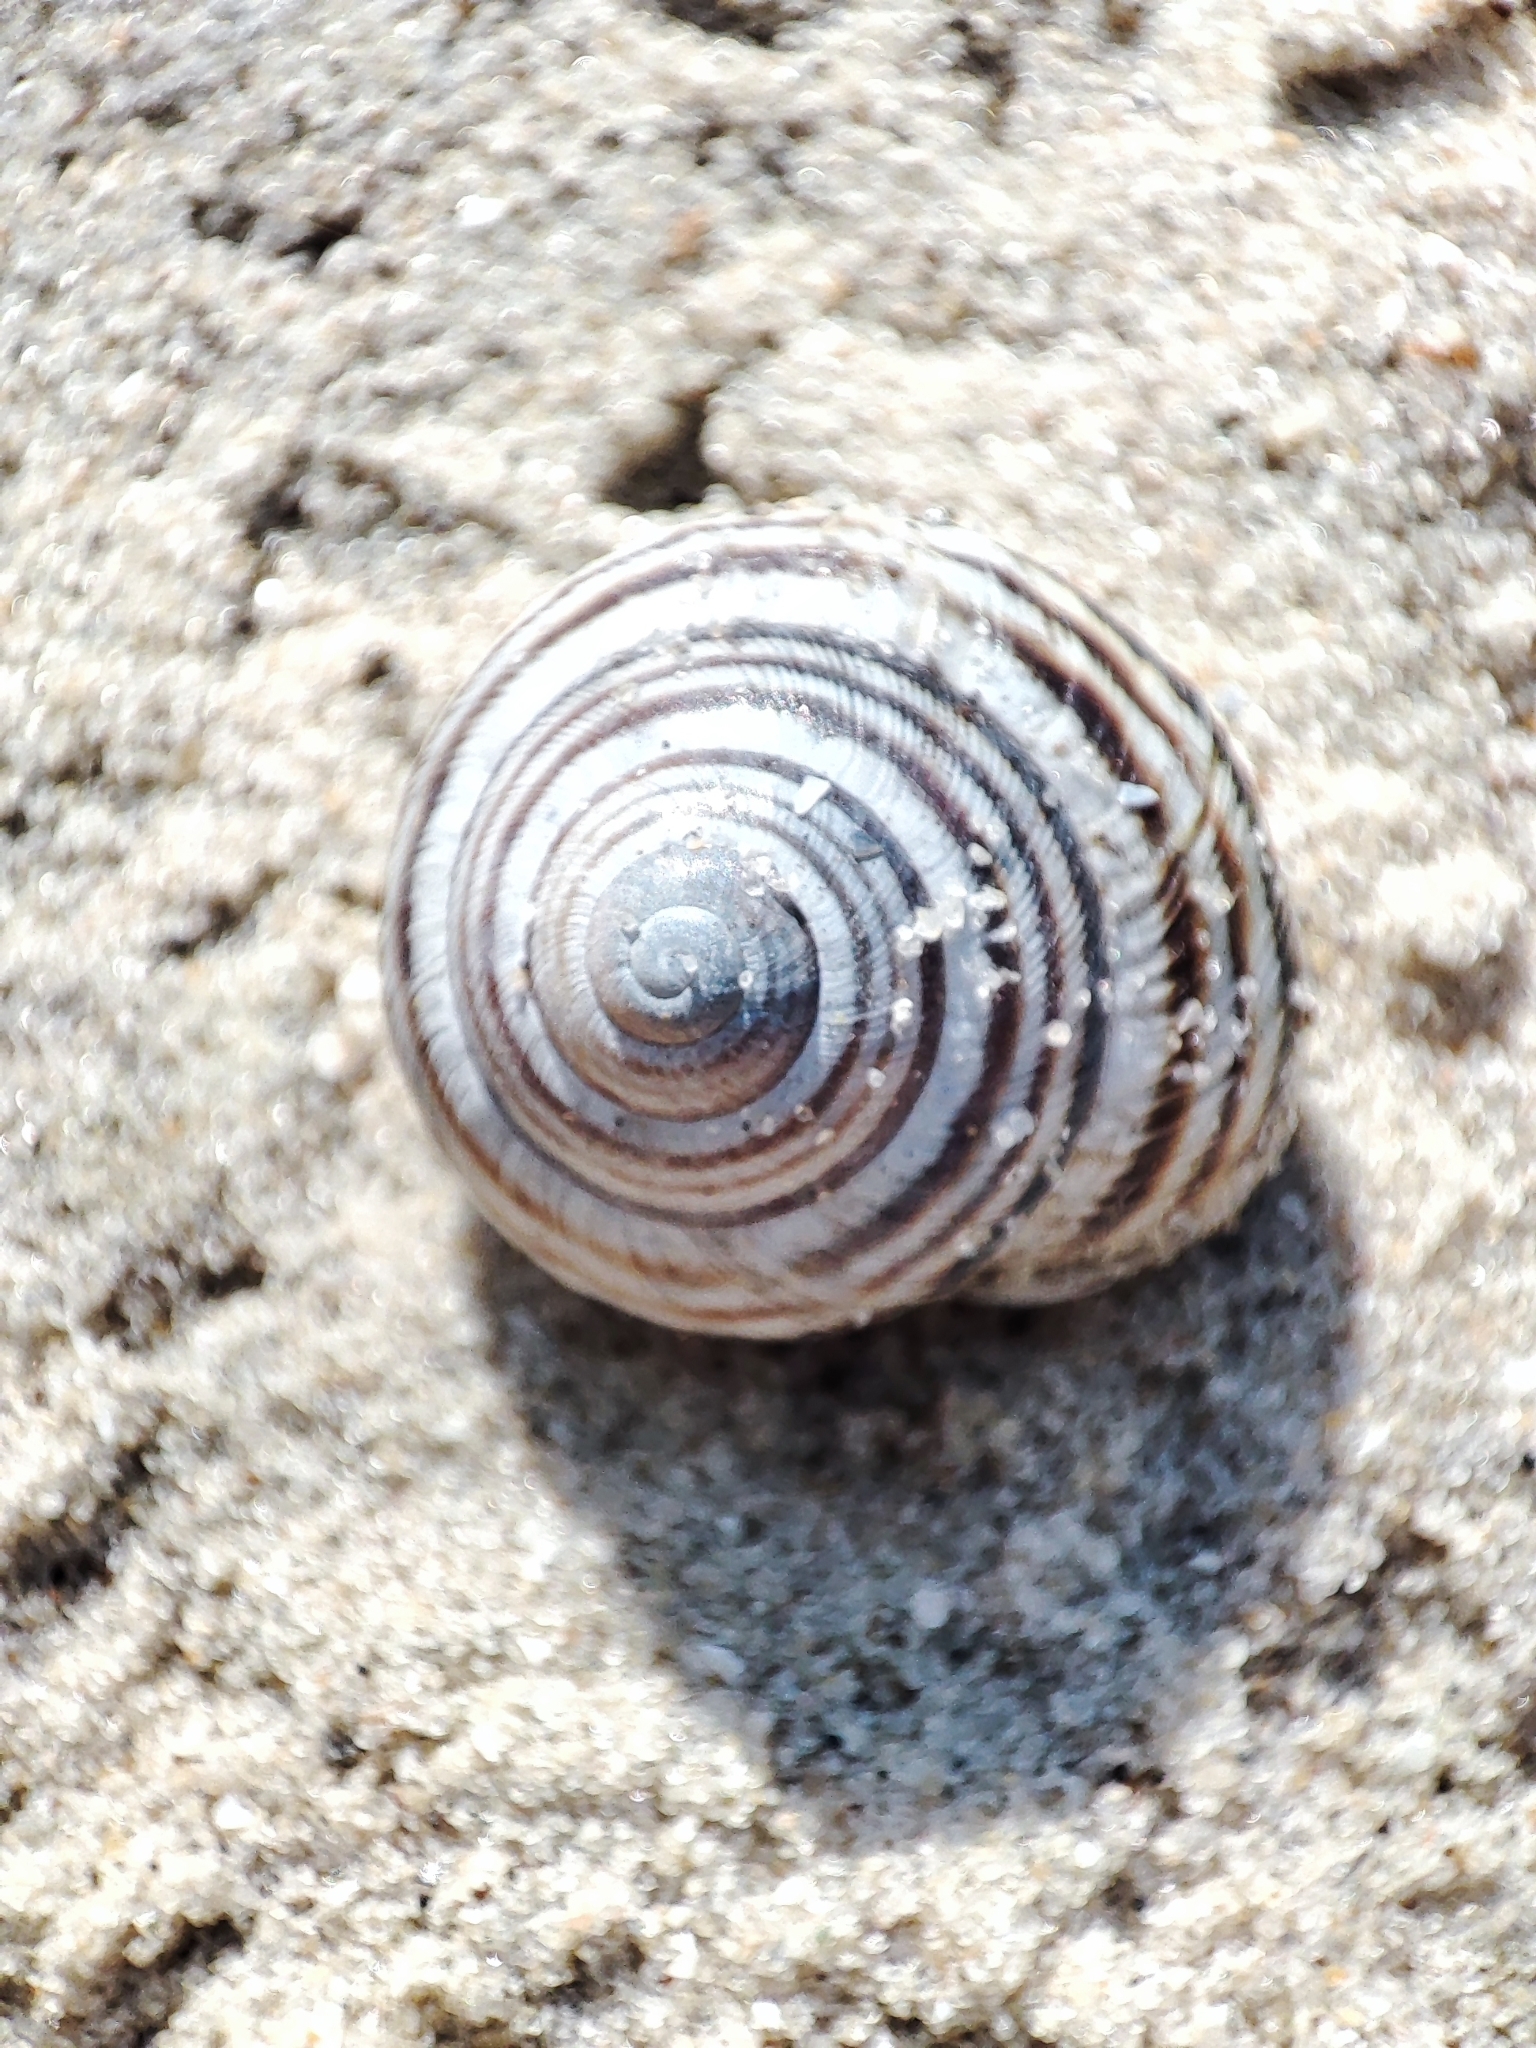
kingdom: Animalia
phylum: Mollusca
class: Gastropoda
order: Stylommatophora
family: Helicidae
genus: Caucasotachea
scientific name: Caucasotachea vindobonensis
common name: European helicid land snail
